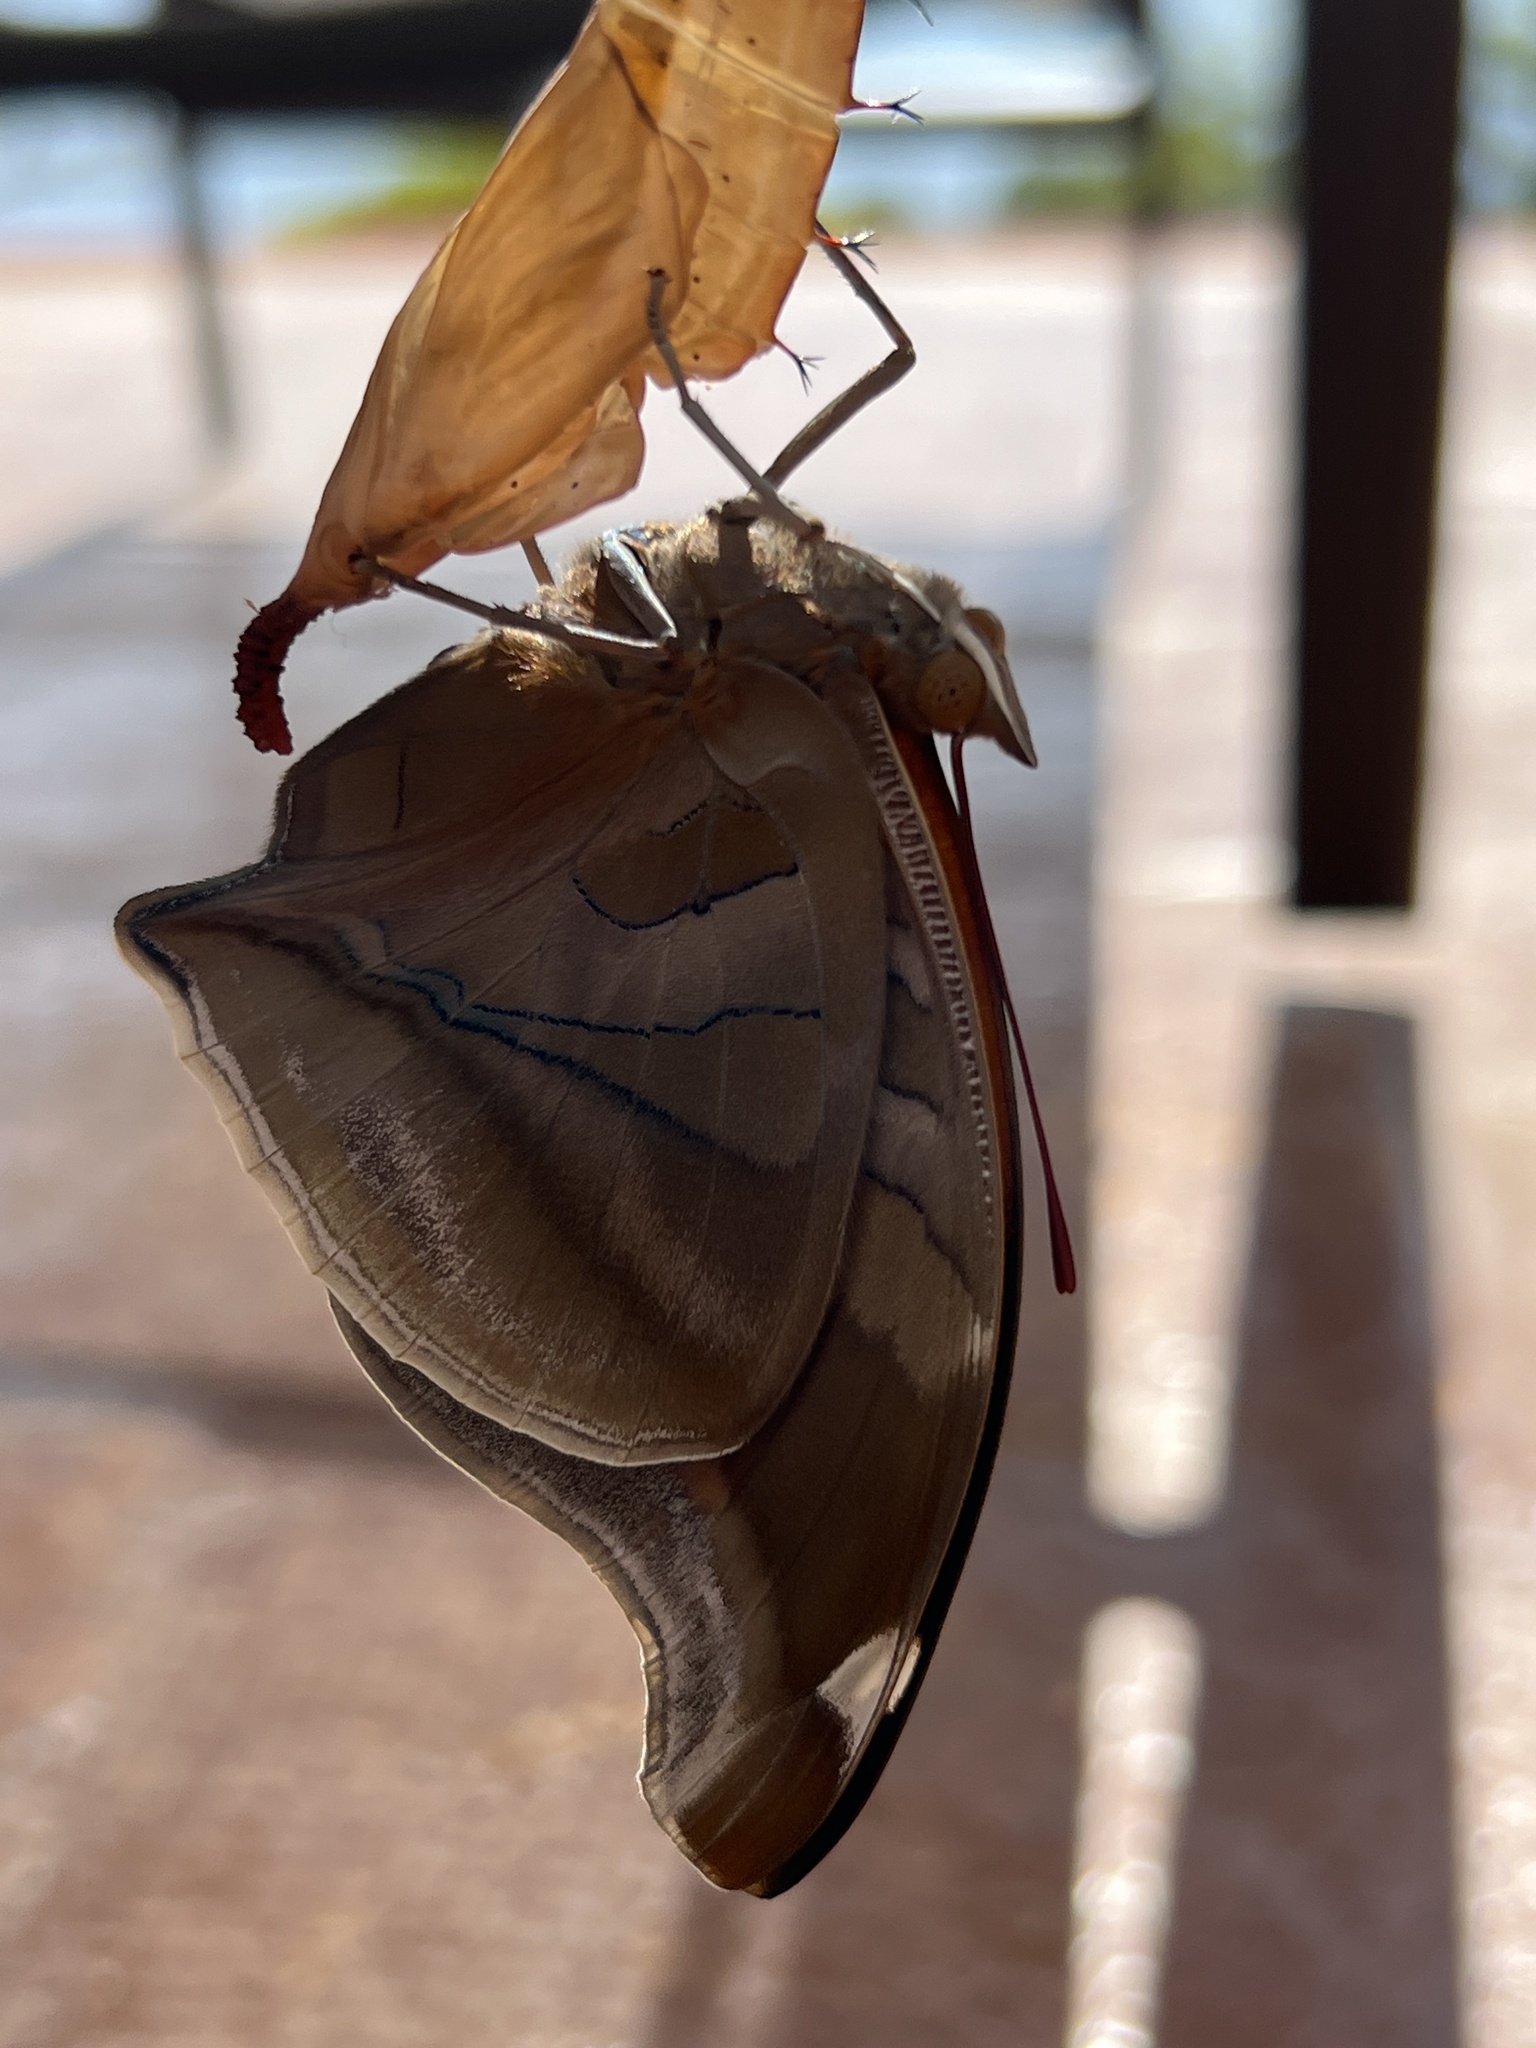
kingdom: Animalia
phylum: Arthropoda
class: Insecta
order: Lepidoptera
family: Nymphalidae
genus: Historis
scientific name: Historis odius
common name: Orion cecropian
